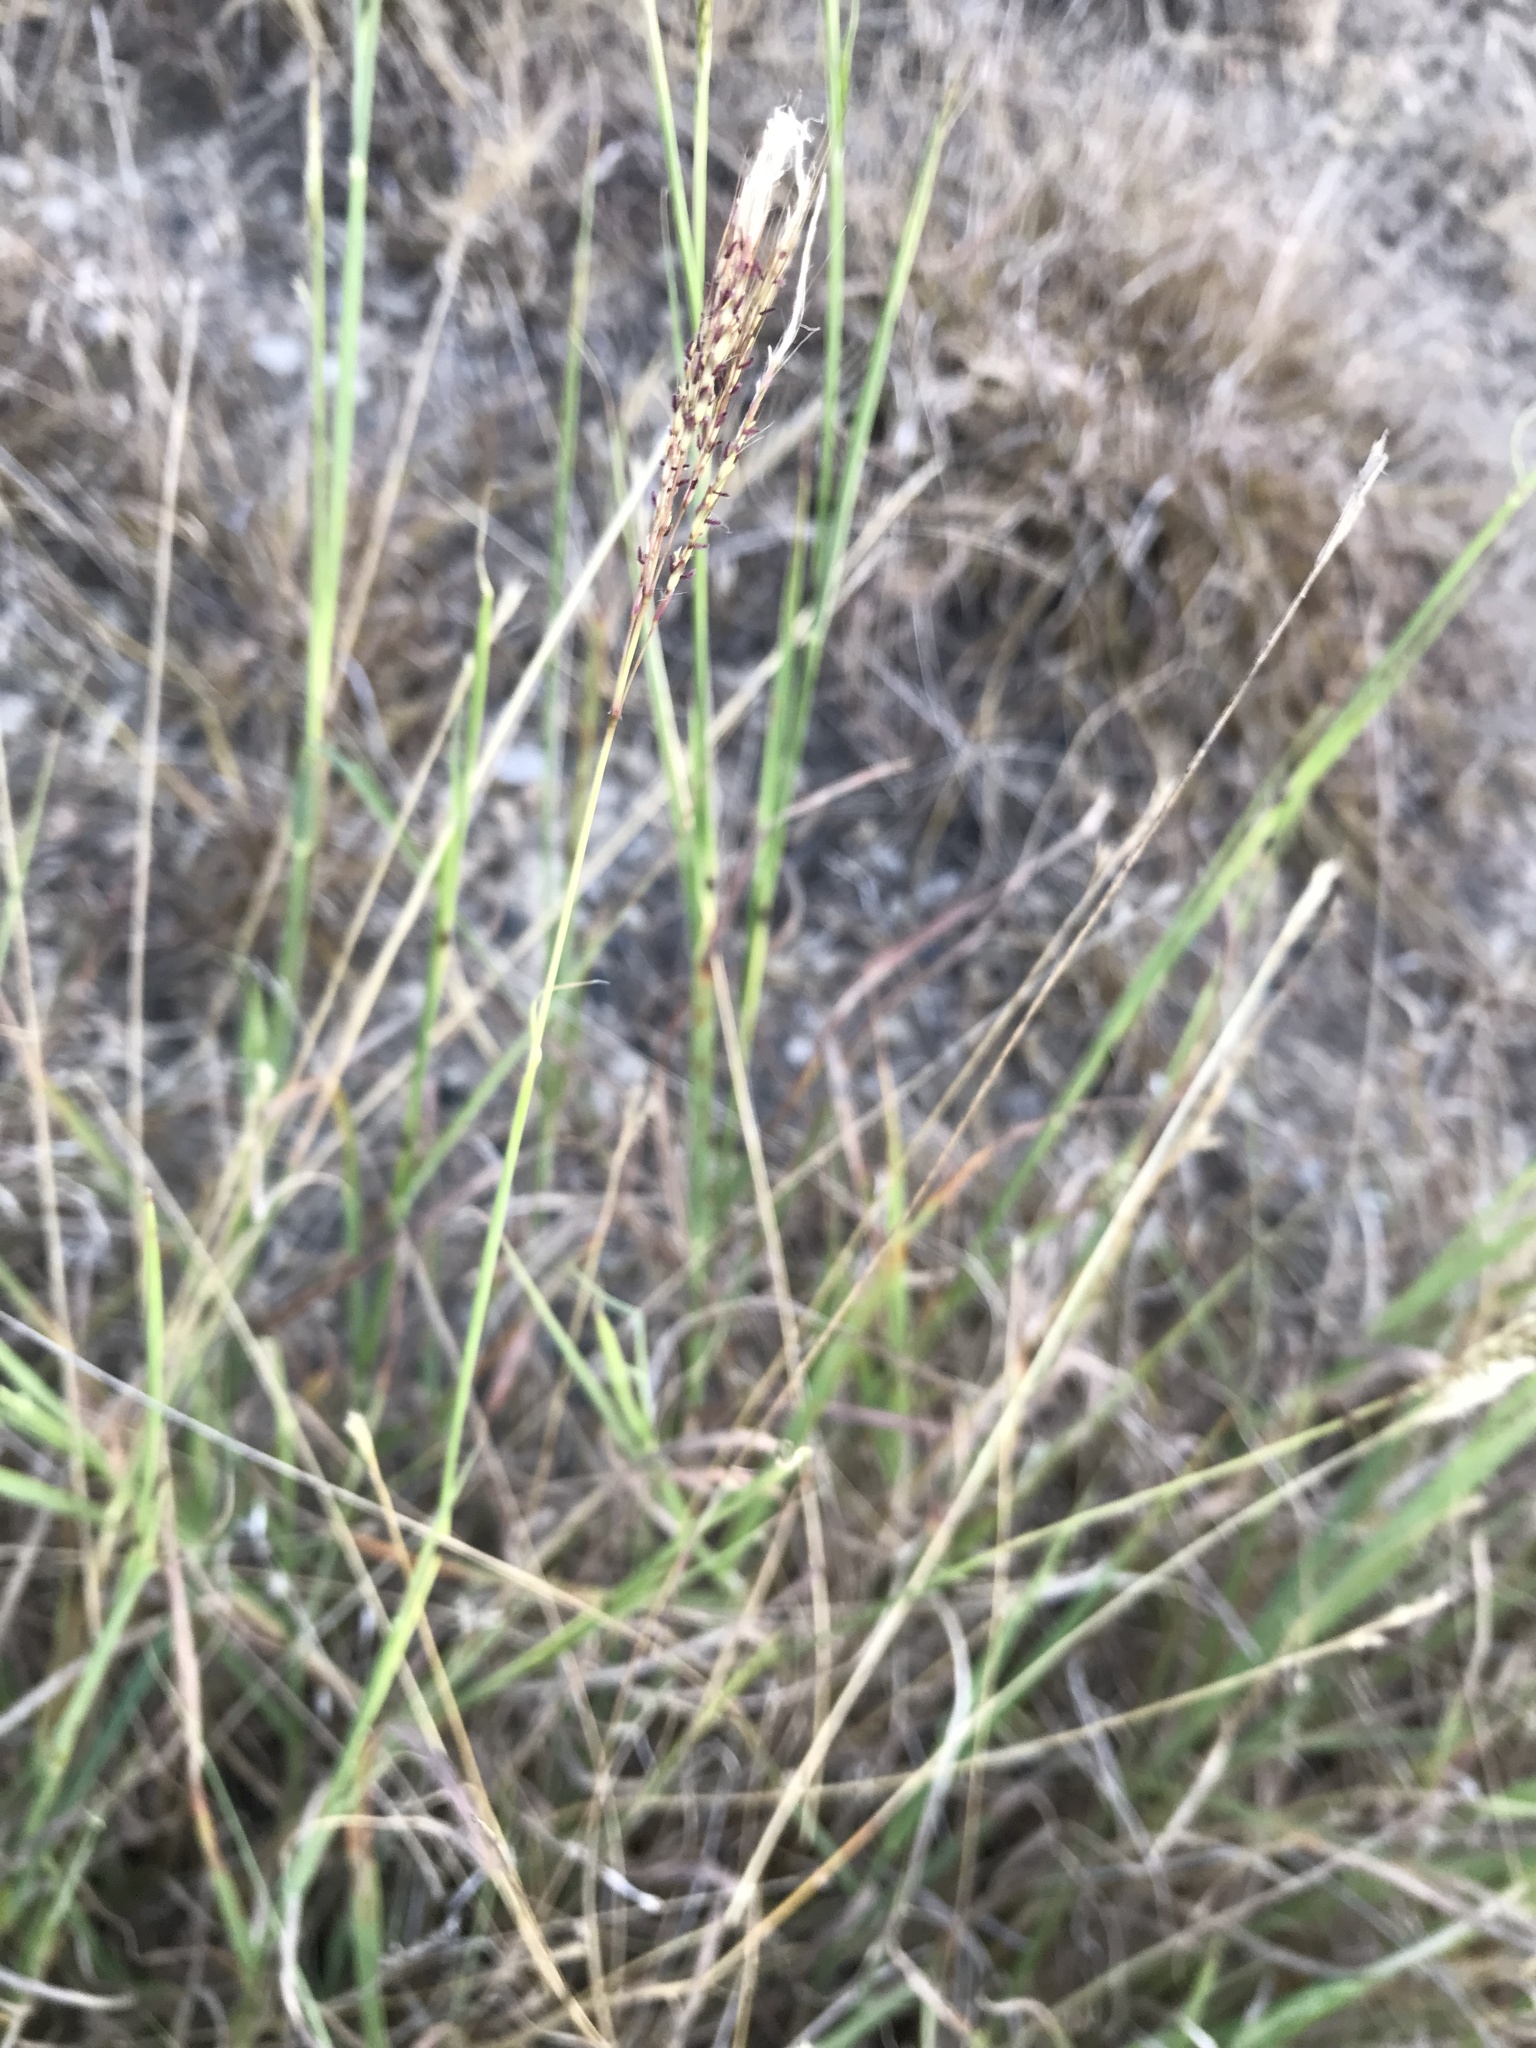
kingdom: Plantae
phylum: Tracheophyta
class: Liliopsida
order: Poales
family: Poaceae
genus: Bothriochloa
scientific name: Bothriochloa ischaemum
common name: Yellow bluestem
